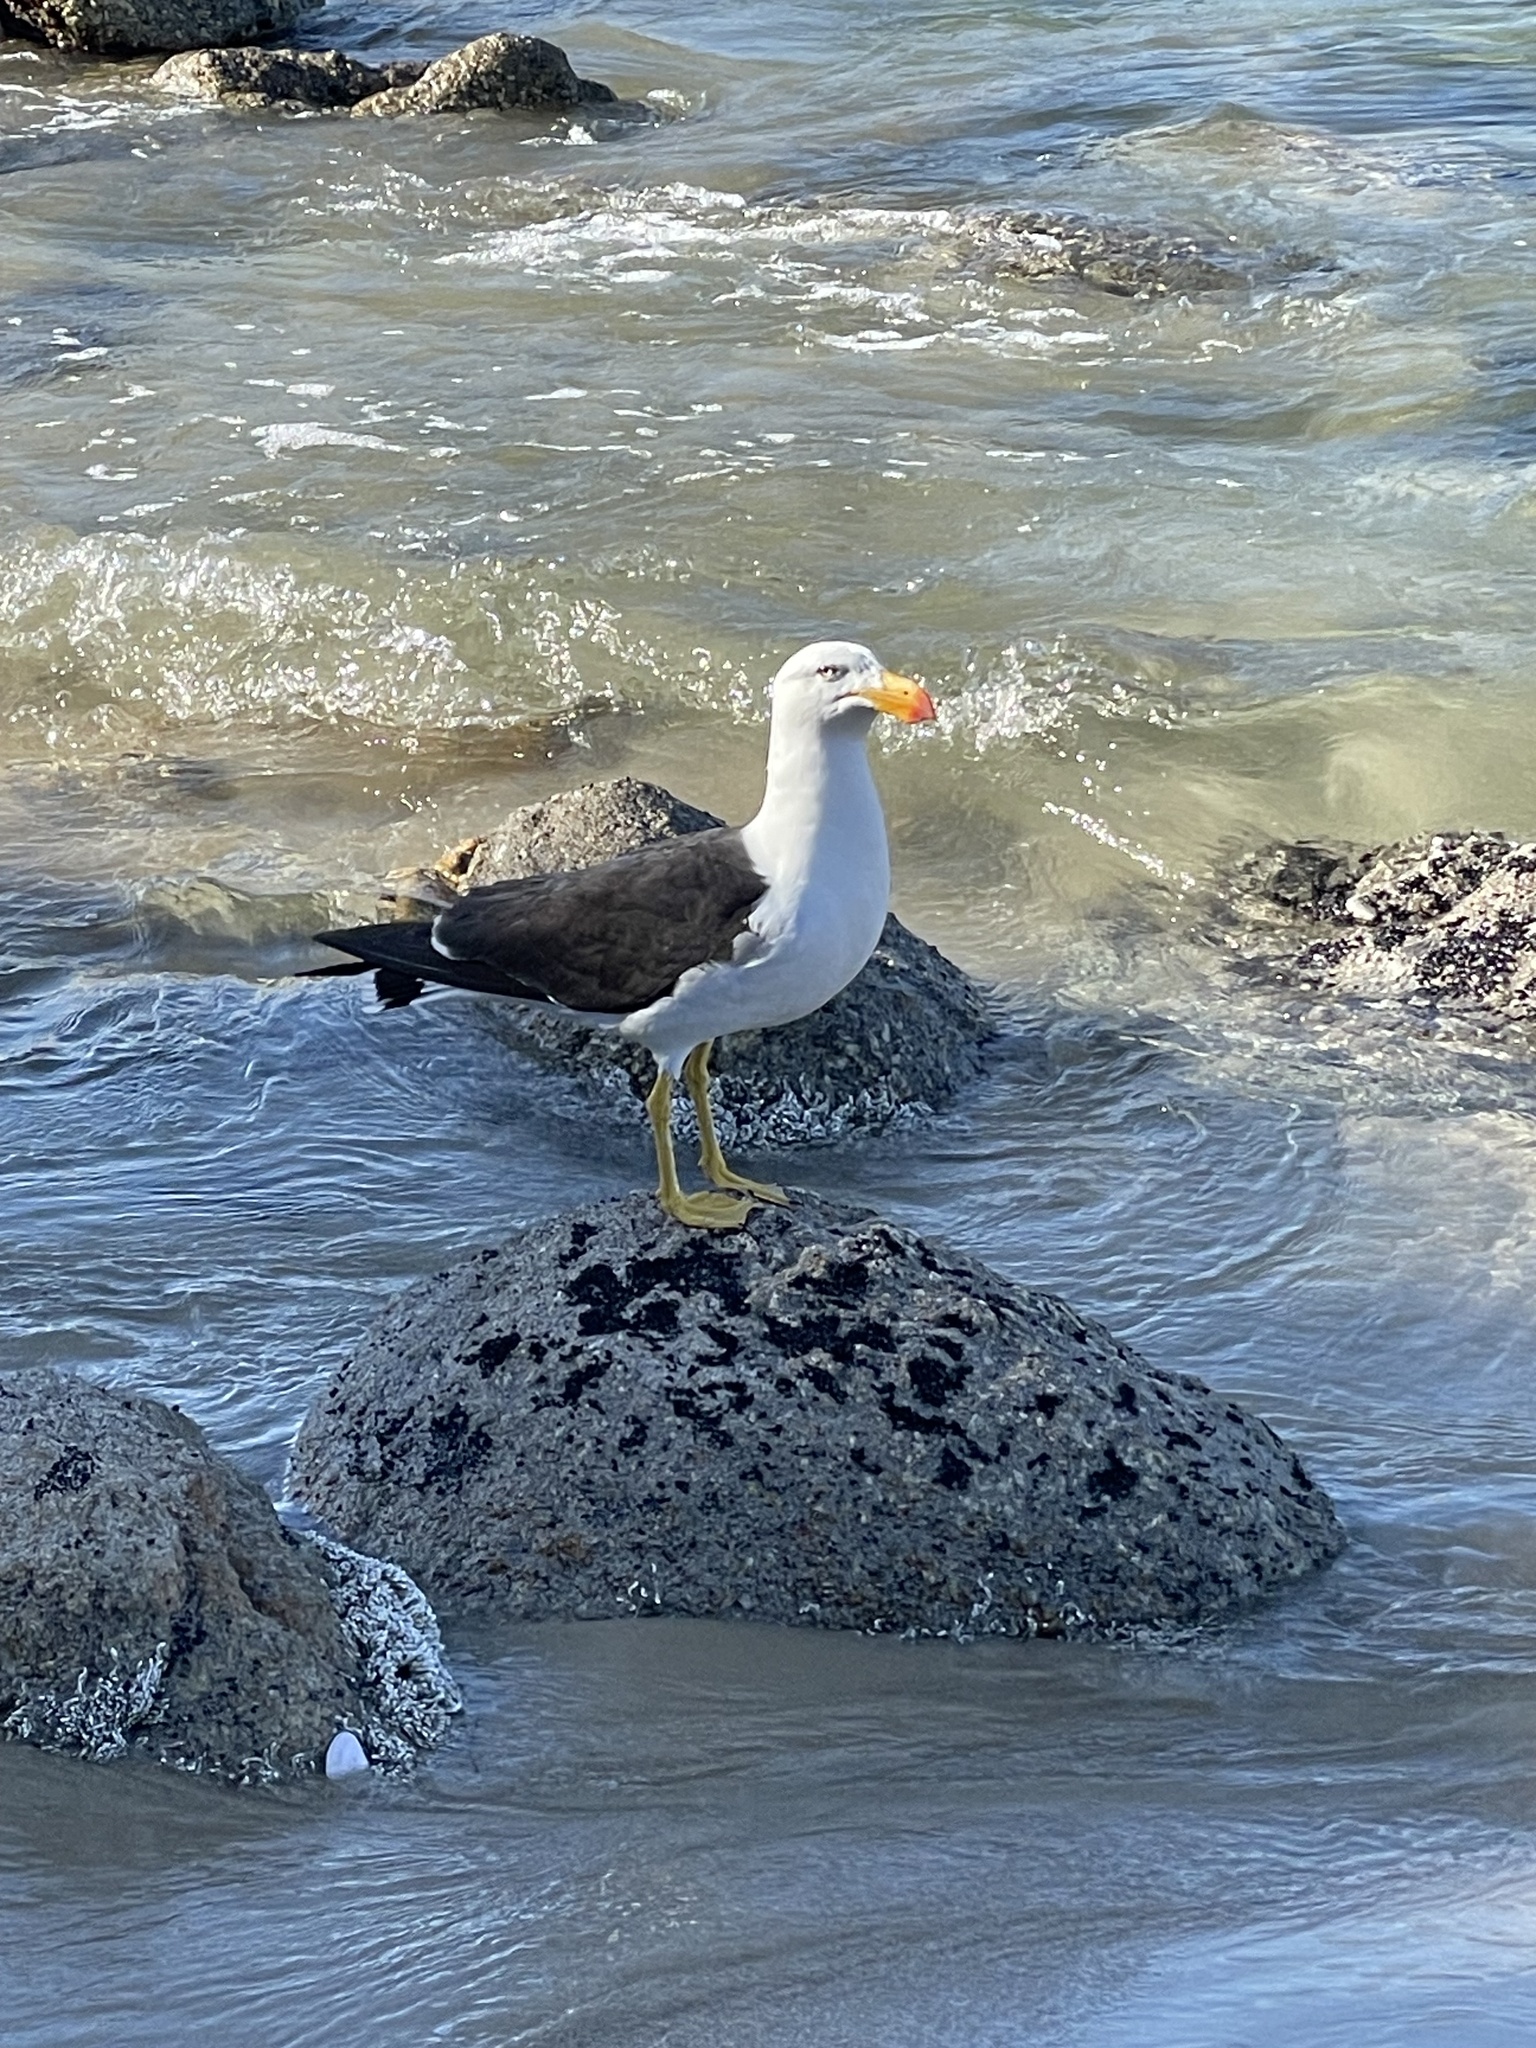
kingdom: Animalia
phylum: Chordata
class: Aves
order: Charadriiformes
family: Laridae
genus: Larus
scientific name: Larus pacificus
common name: Pacific gull
